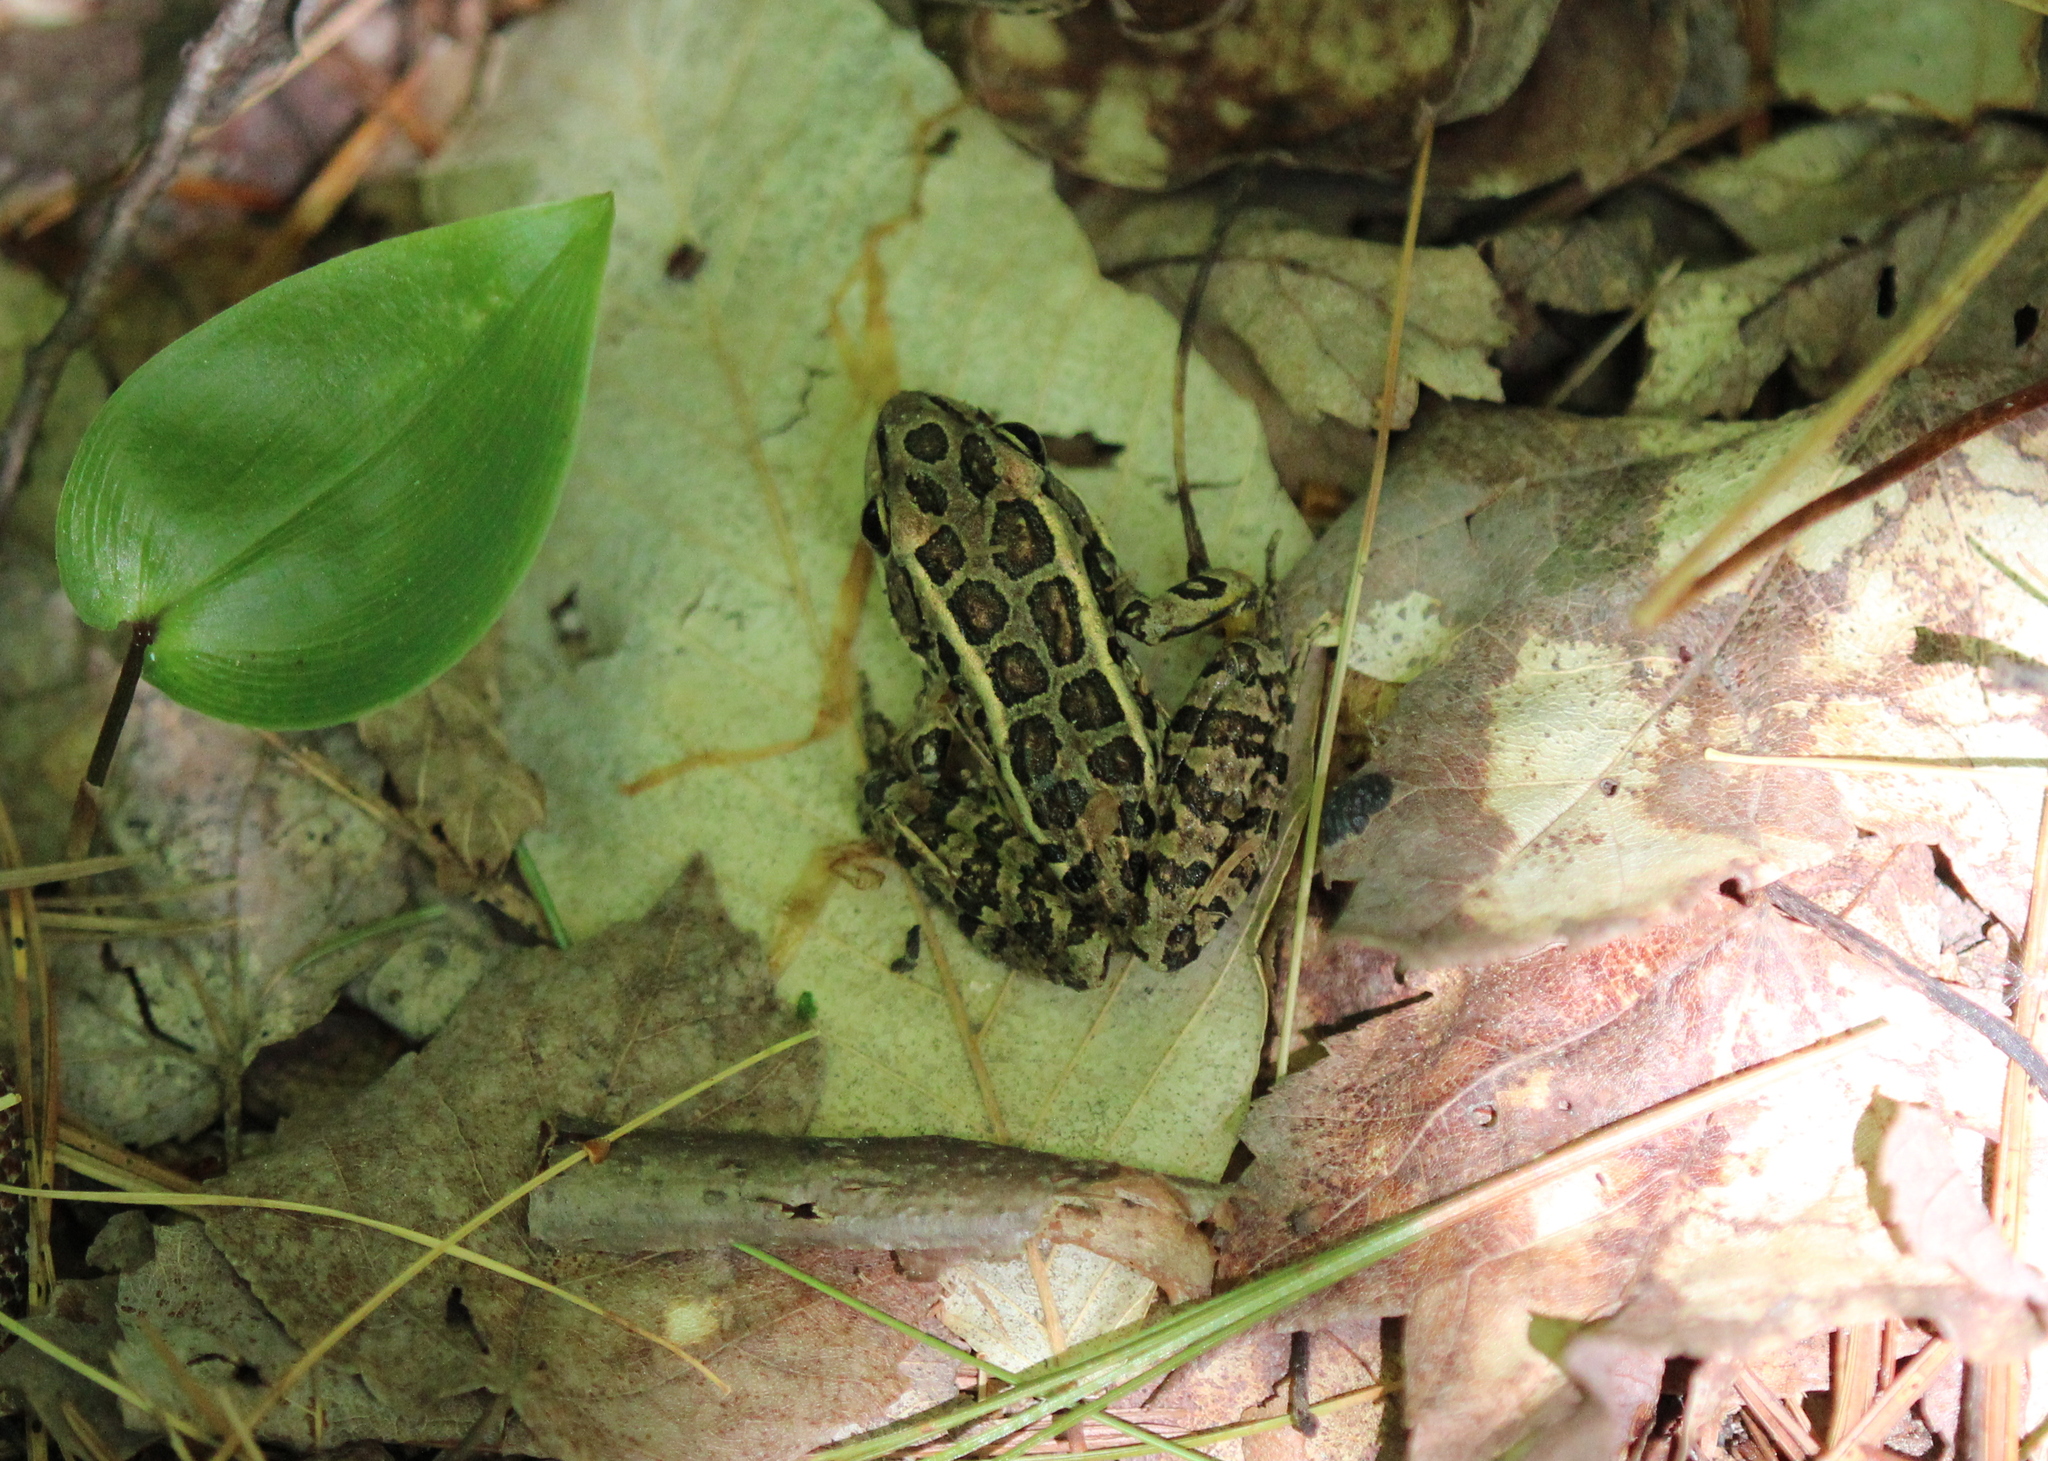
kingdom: Animalia
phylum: Chordata
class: Amphibia
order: Anura
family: Ranidae
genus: Lithobates
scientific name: Lithobates palustris
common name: Pickerel frog
